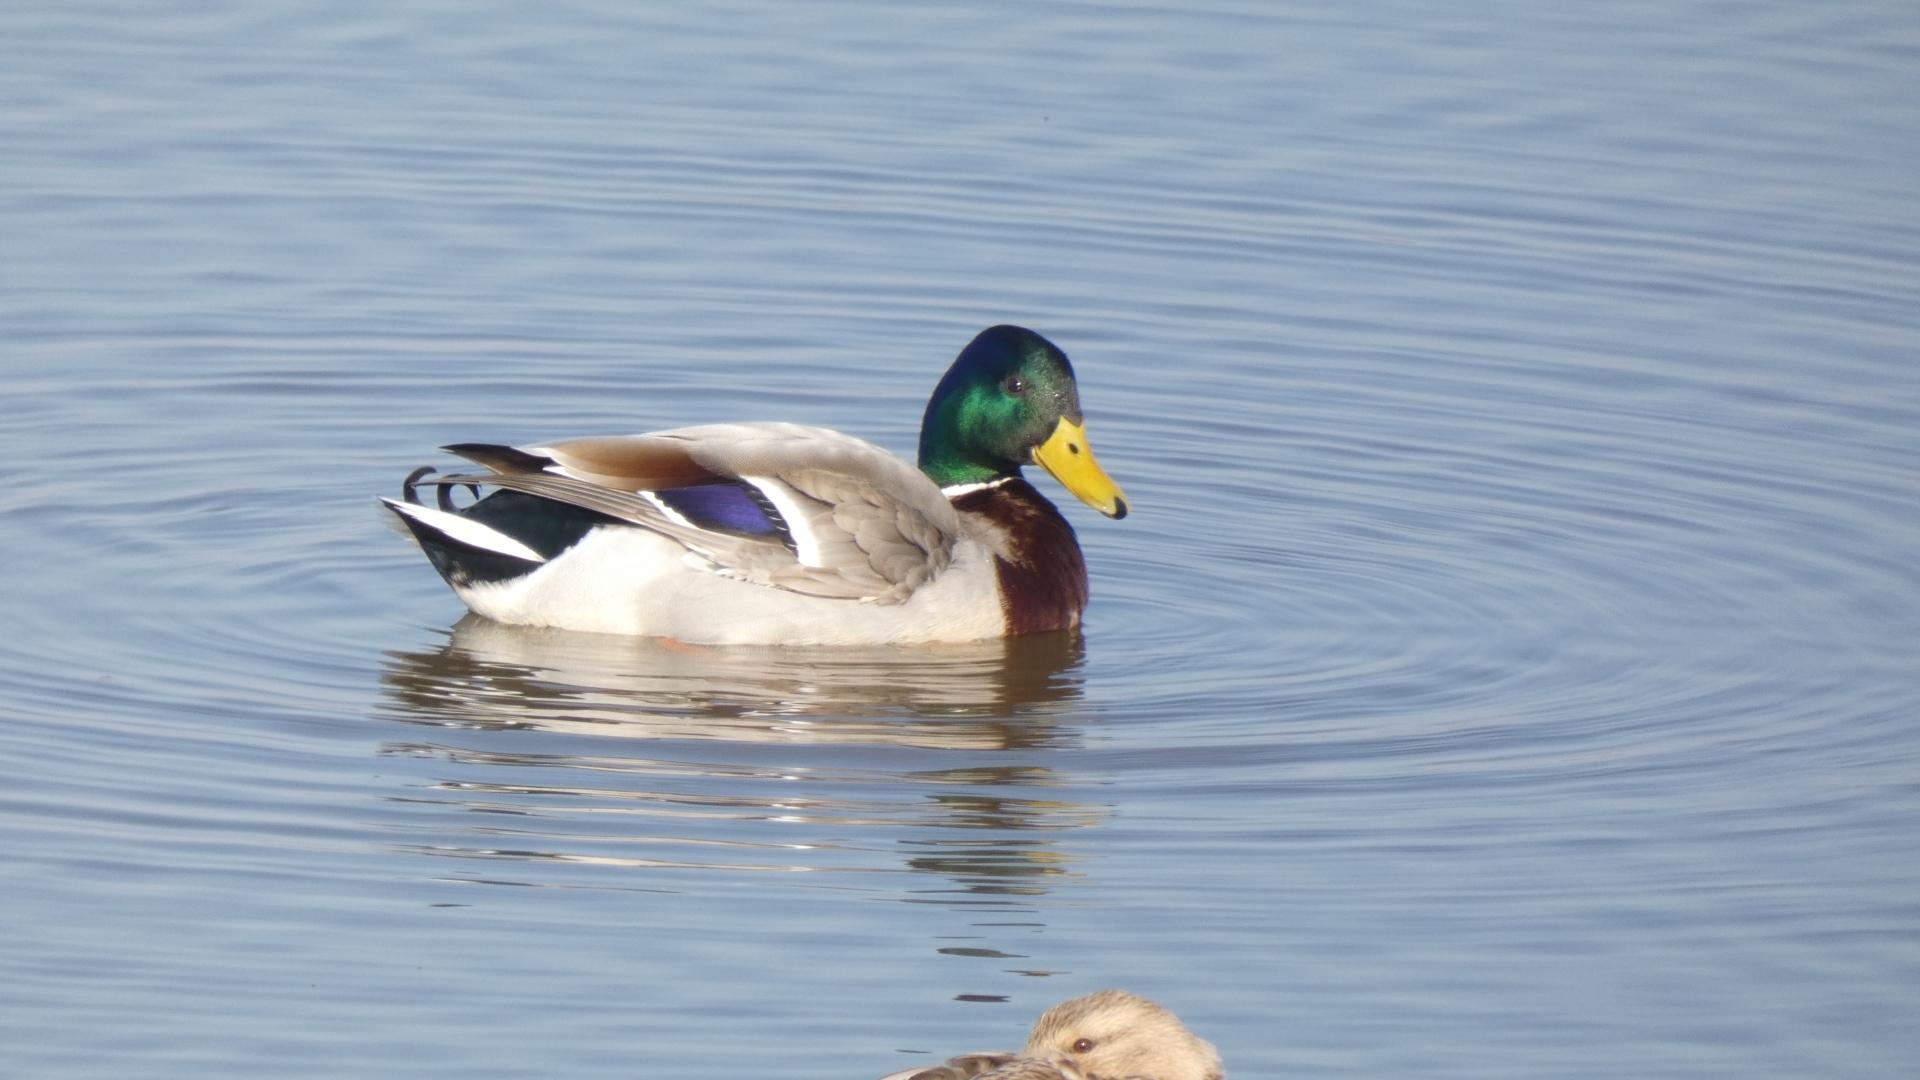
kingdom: Animalia
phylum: Chordata
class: Aves
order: Anseriformes
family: Anatidae
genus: Anas
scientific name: Anas platyrhynchos
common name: Mallard
